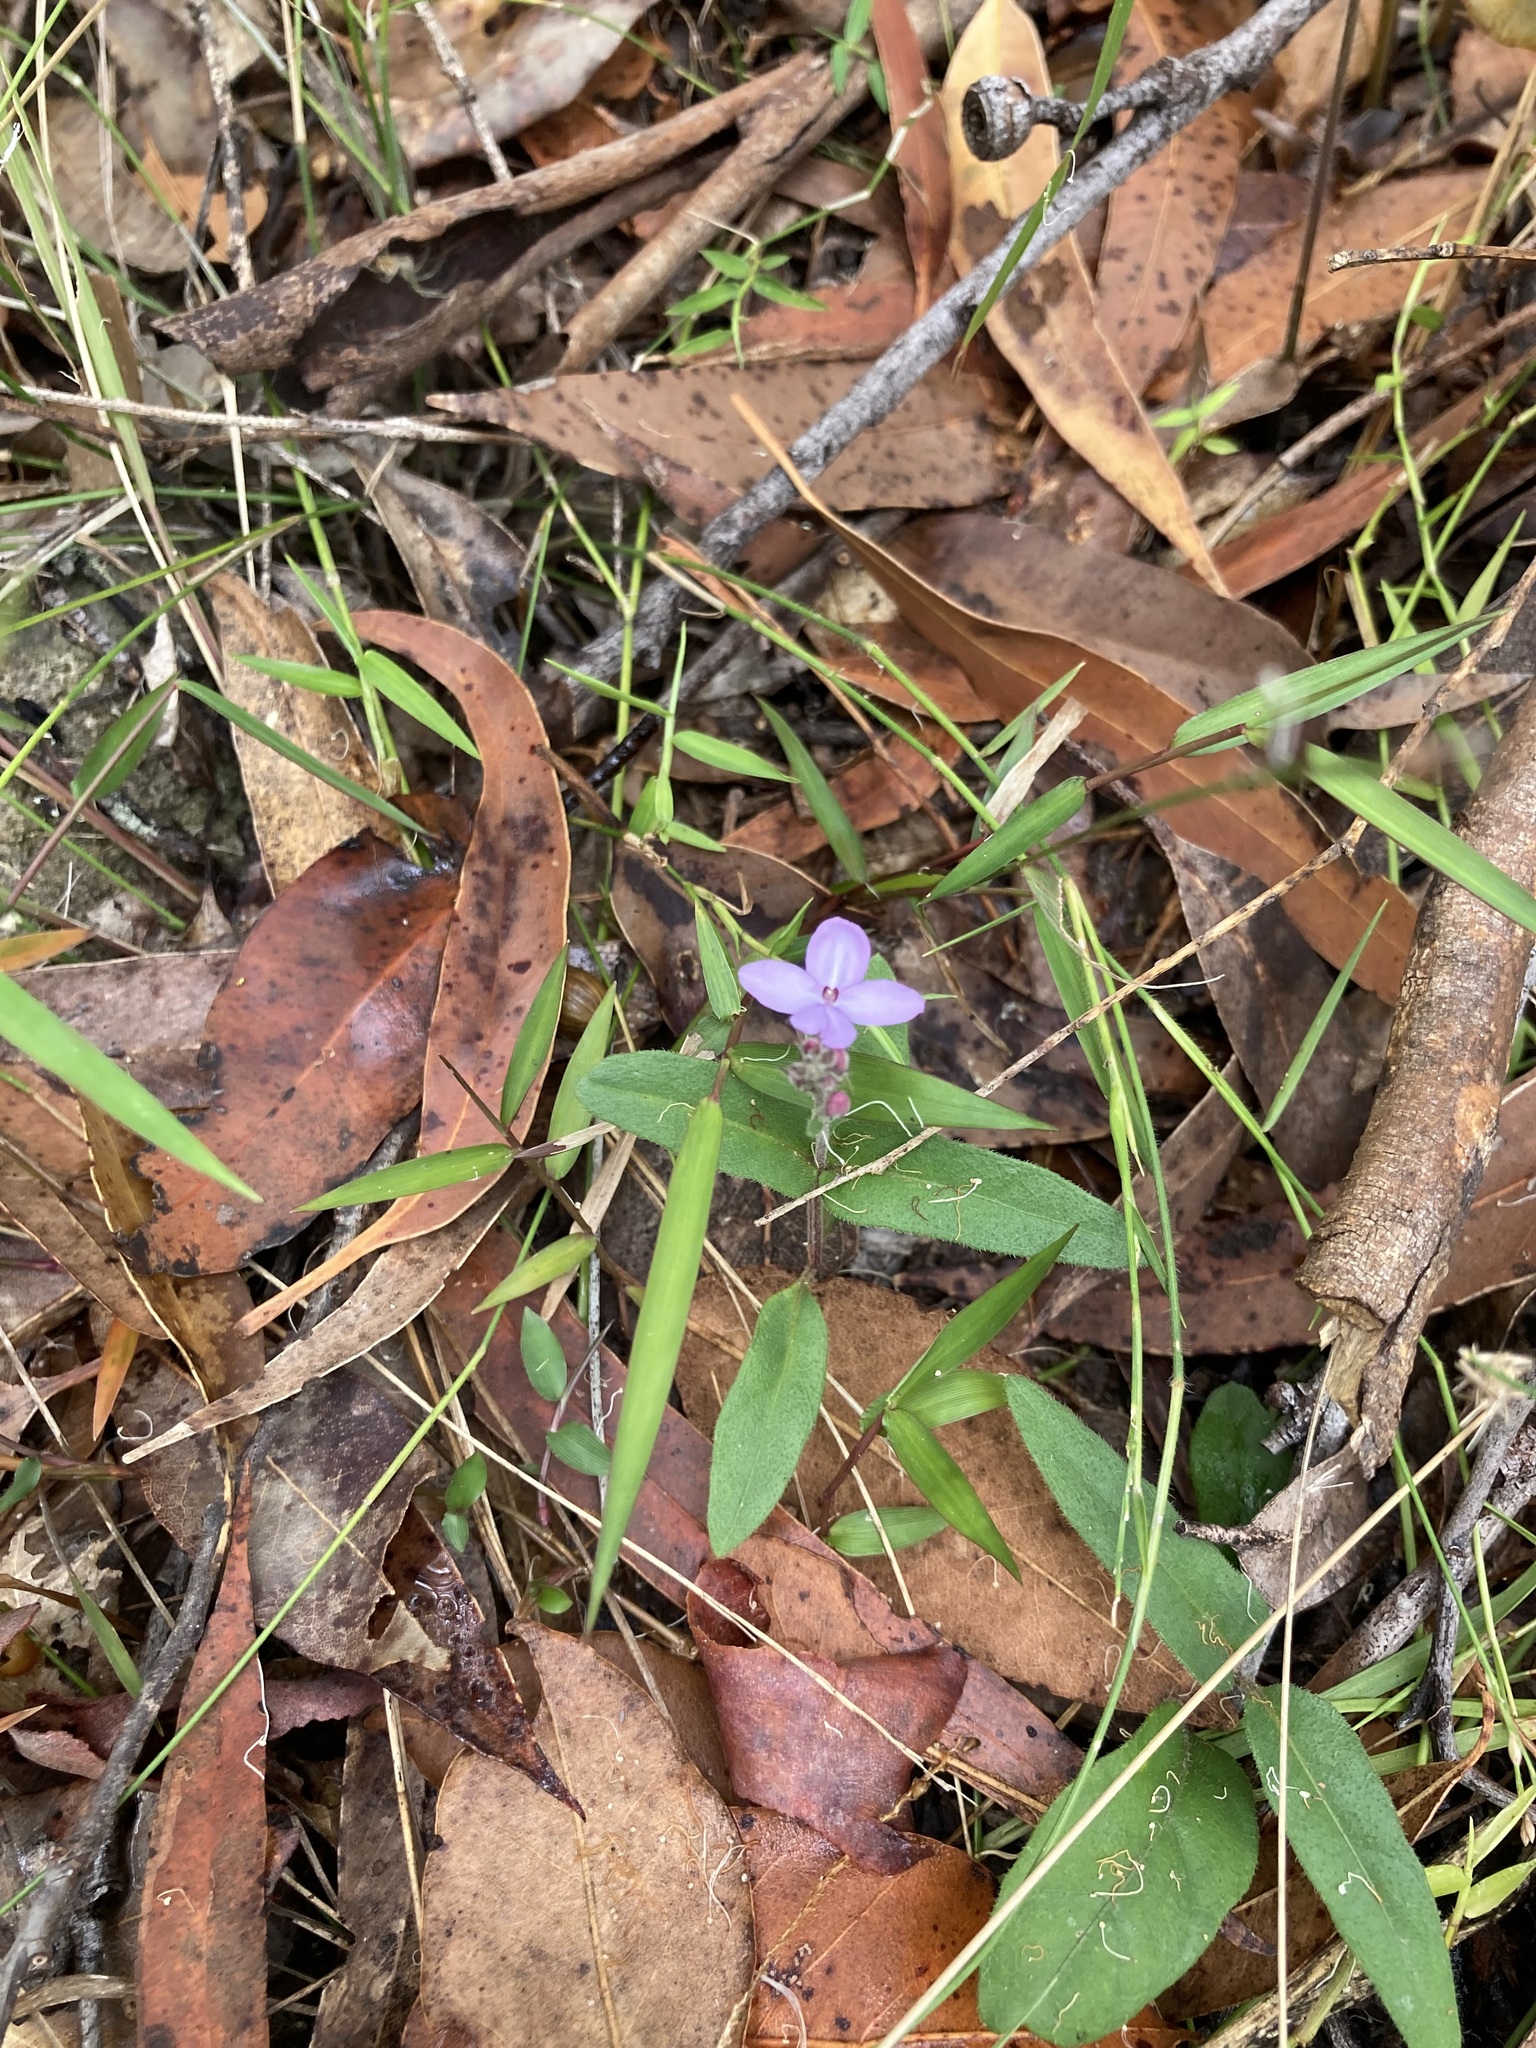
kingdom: Plantae
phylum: Tracheophyta
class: Magnoliopsida
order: Lamiales
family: Acanthaceae
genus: Pseuderanthemum
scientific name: Pseuderanthemum variabile
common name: Night and afternoon
